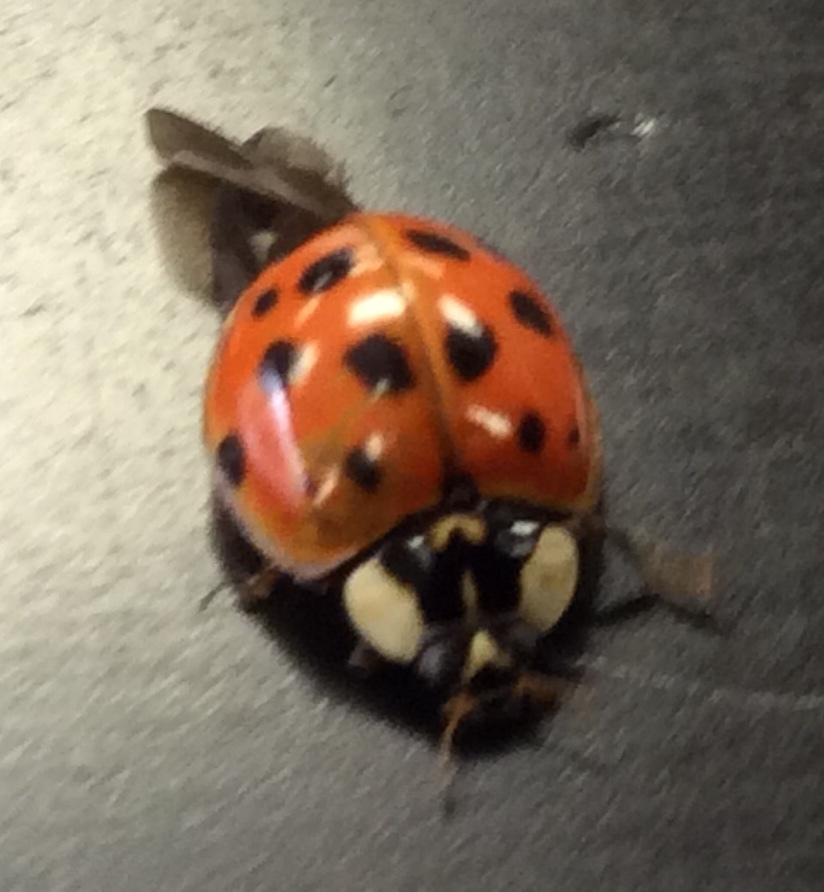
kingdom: Animalia
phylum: Arthropoda
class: Insecta
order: Coleoptera
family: Coccinellidae
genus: Harmonia
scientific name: Harmonia axyridis
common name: Harlequin ladybird
